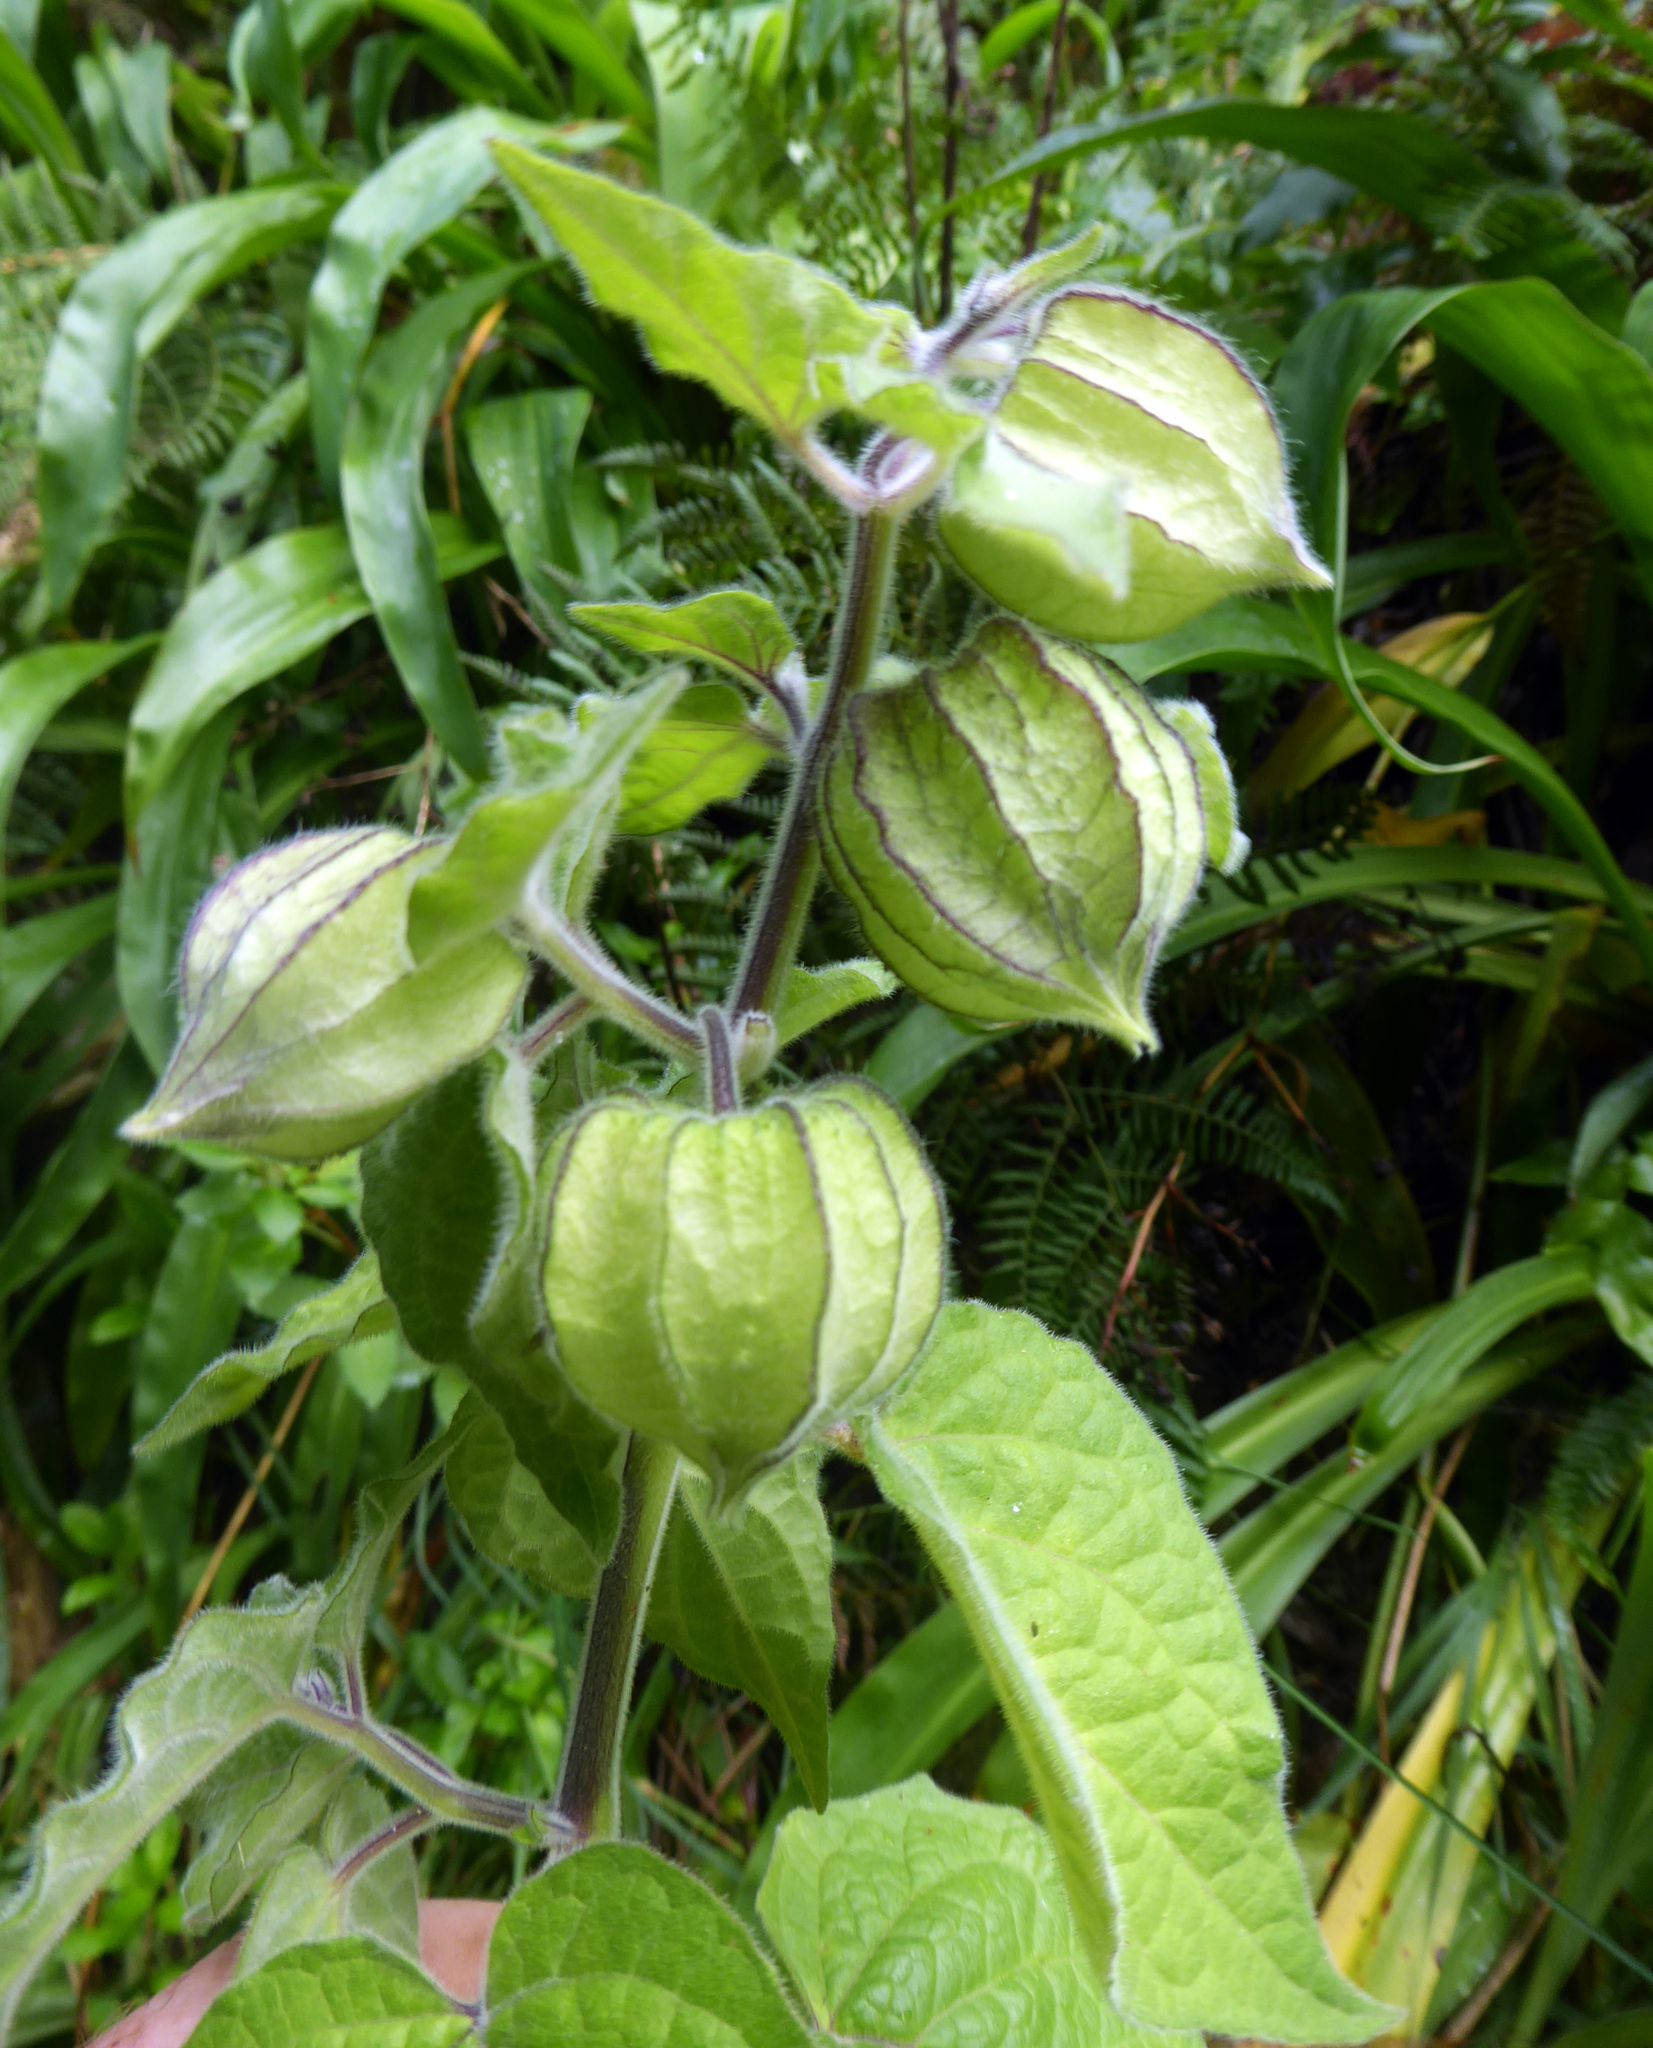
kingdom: Plantae
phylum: Tracheophyta
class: Magnoliopsida
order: Solanales
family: Solanaceae
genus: Physalis
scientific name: Physalis peruviana
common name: Cape-gooseberry
